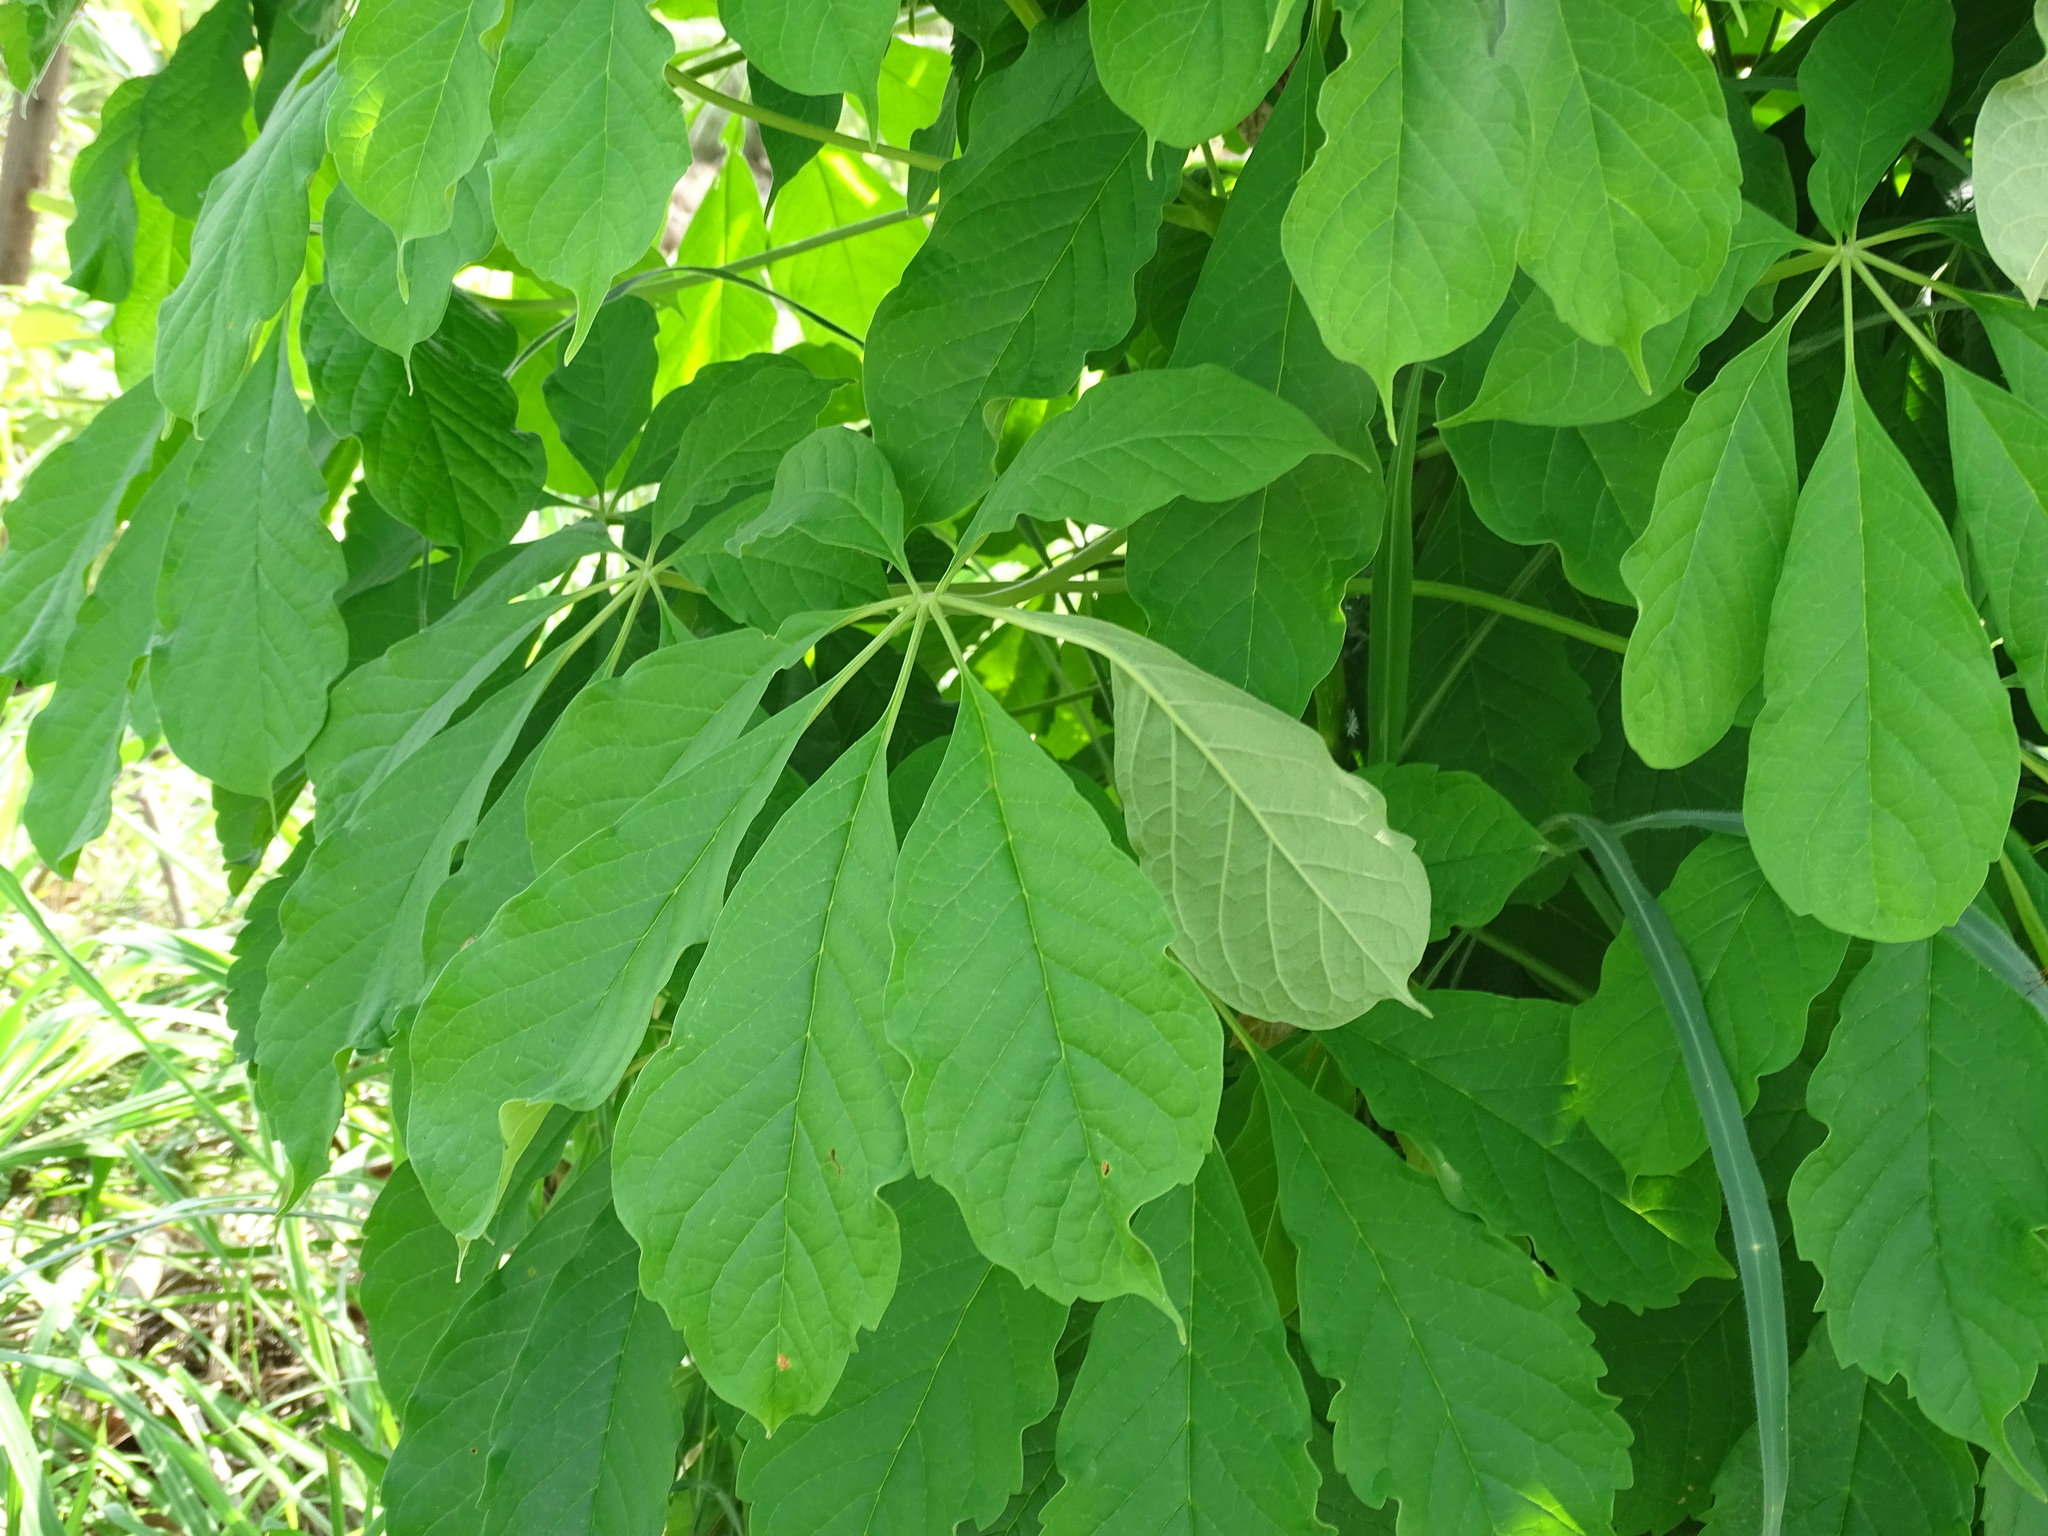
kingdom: Plantae
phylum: Tracheophyta
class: Magnoliopsida
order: Lamiales
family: Bignoniaceae
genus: Godmania
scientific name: Godmania aesculifolia
